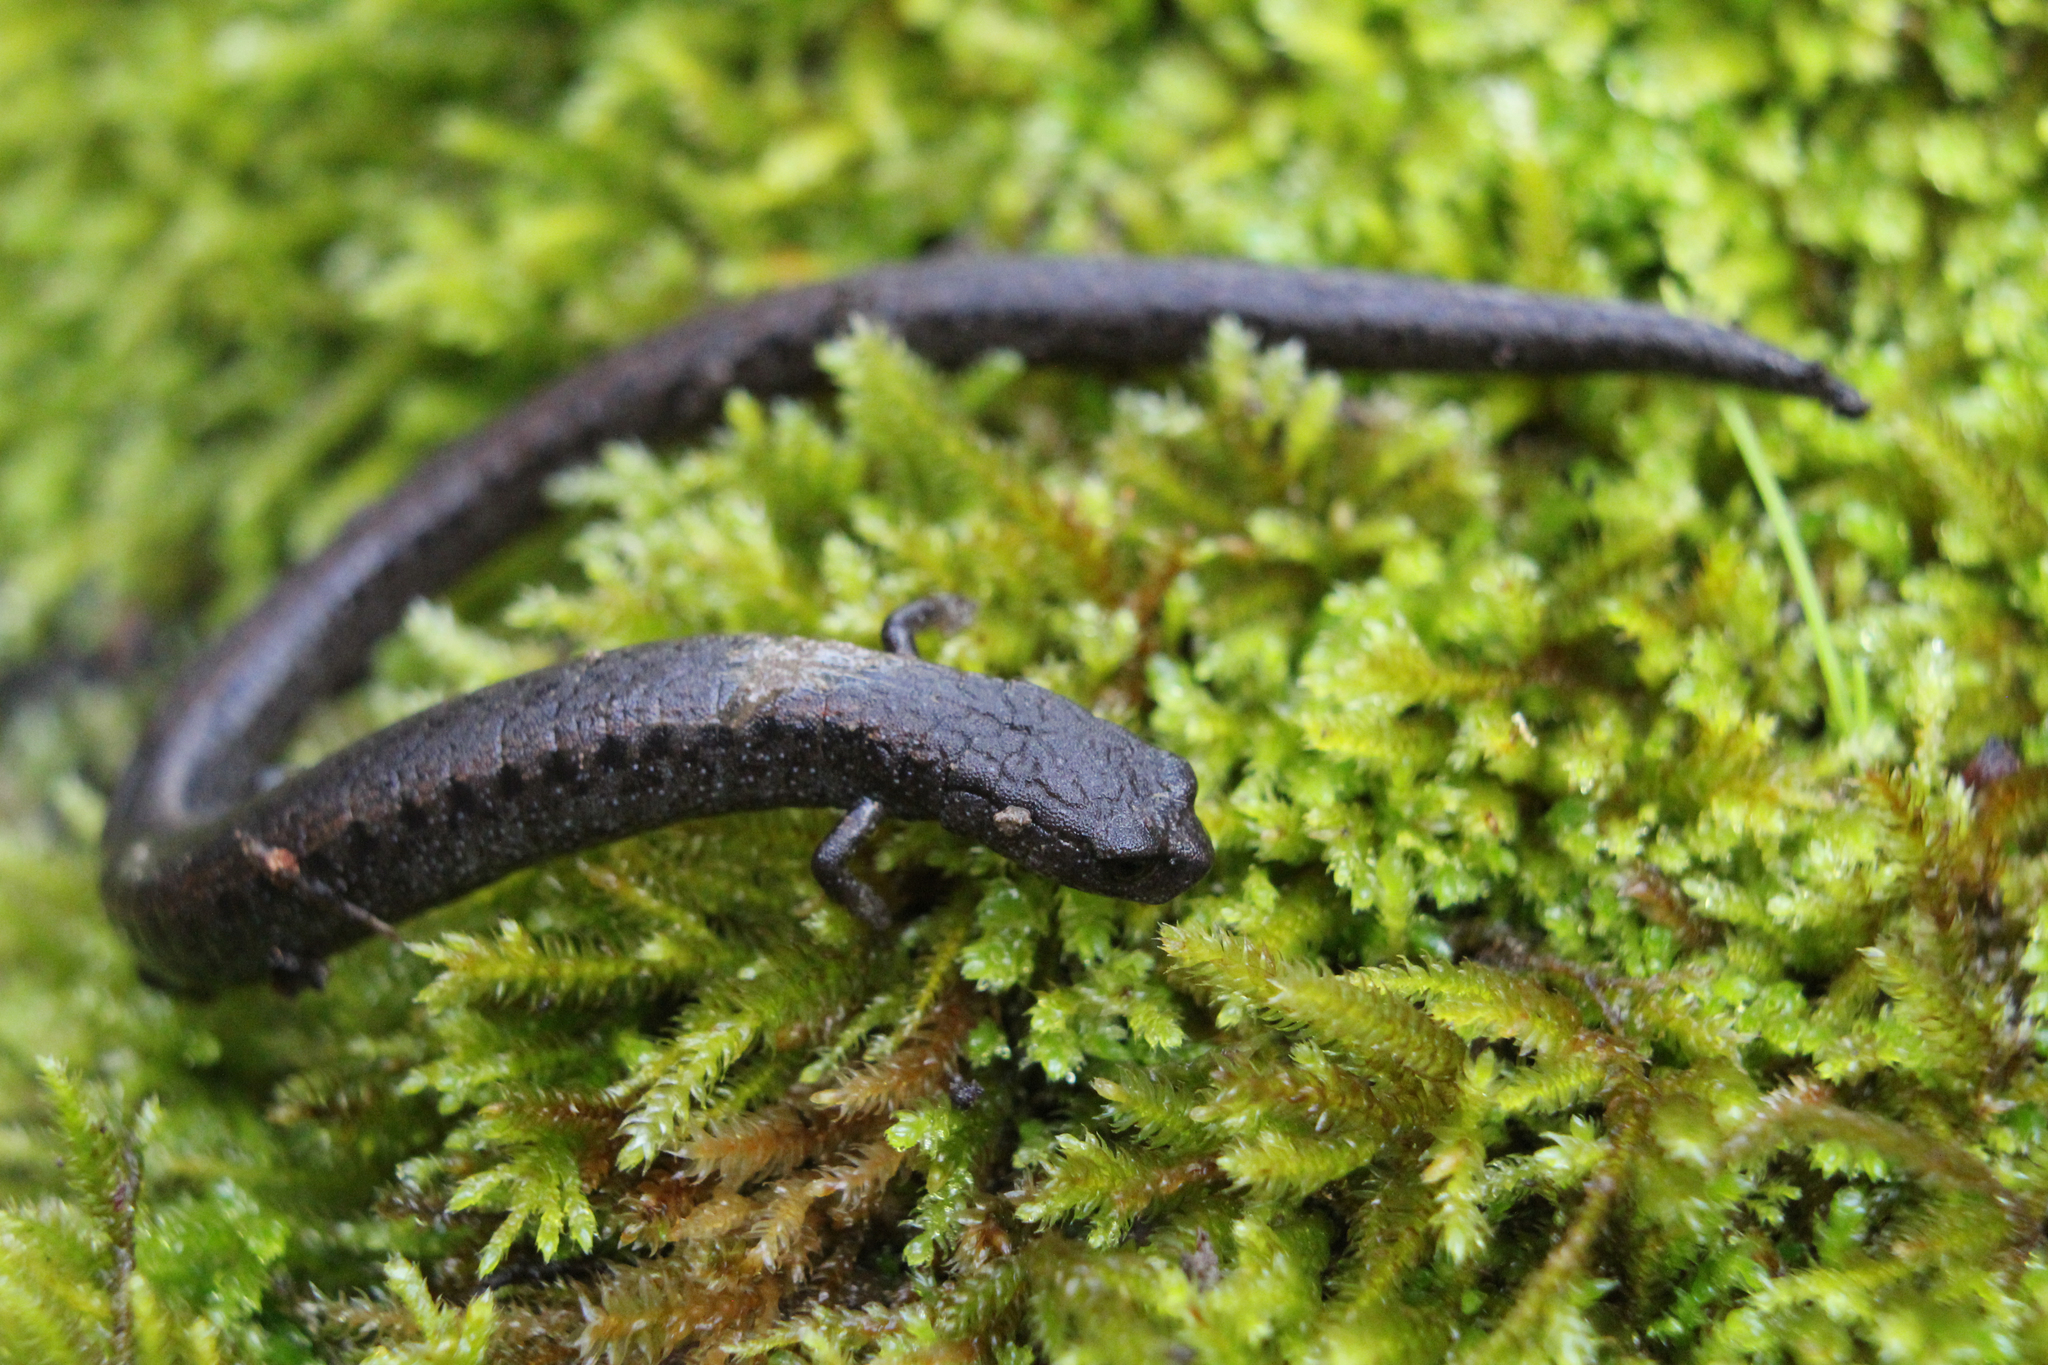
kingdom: Animalia
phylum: Chordata
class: Amphibia
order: Caudata
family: Plethodontidae
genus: Batrachoseps
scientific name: Batrachoseps attenuatus
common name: California slender salamander
